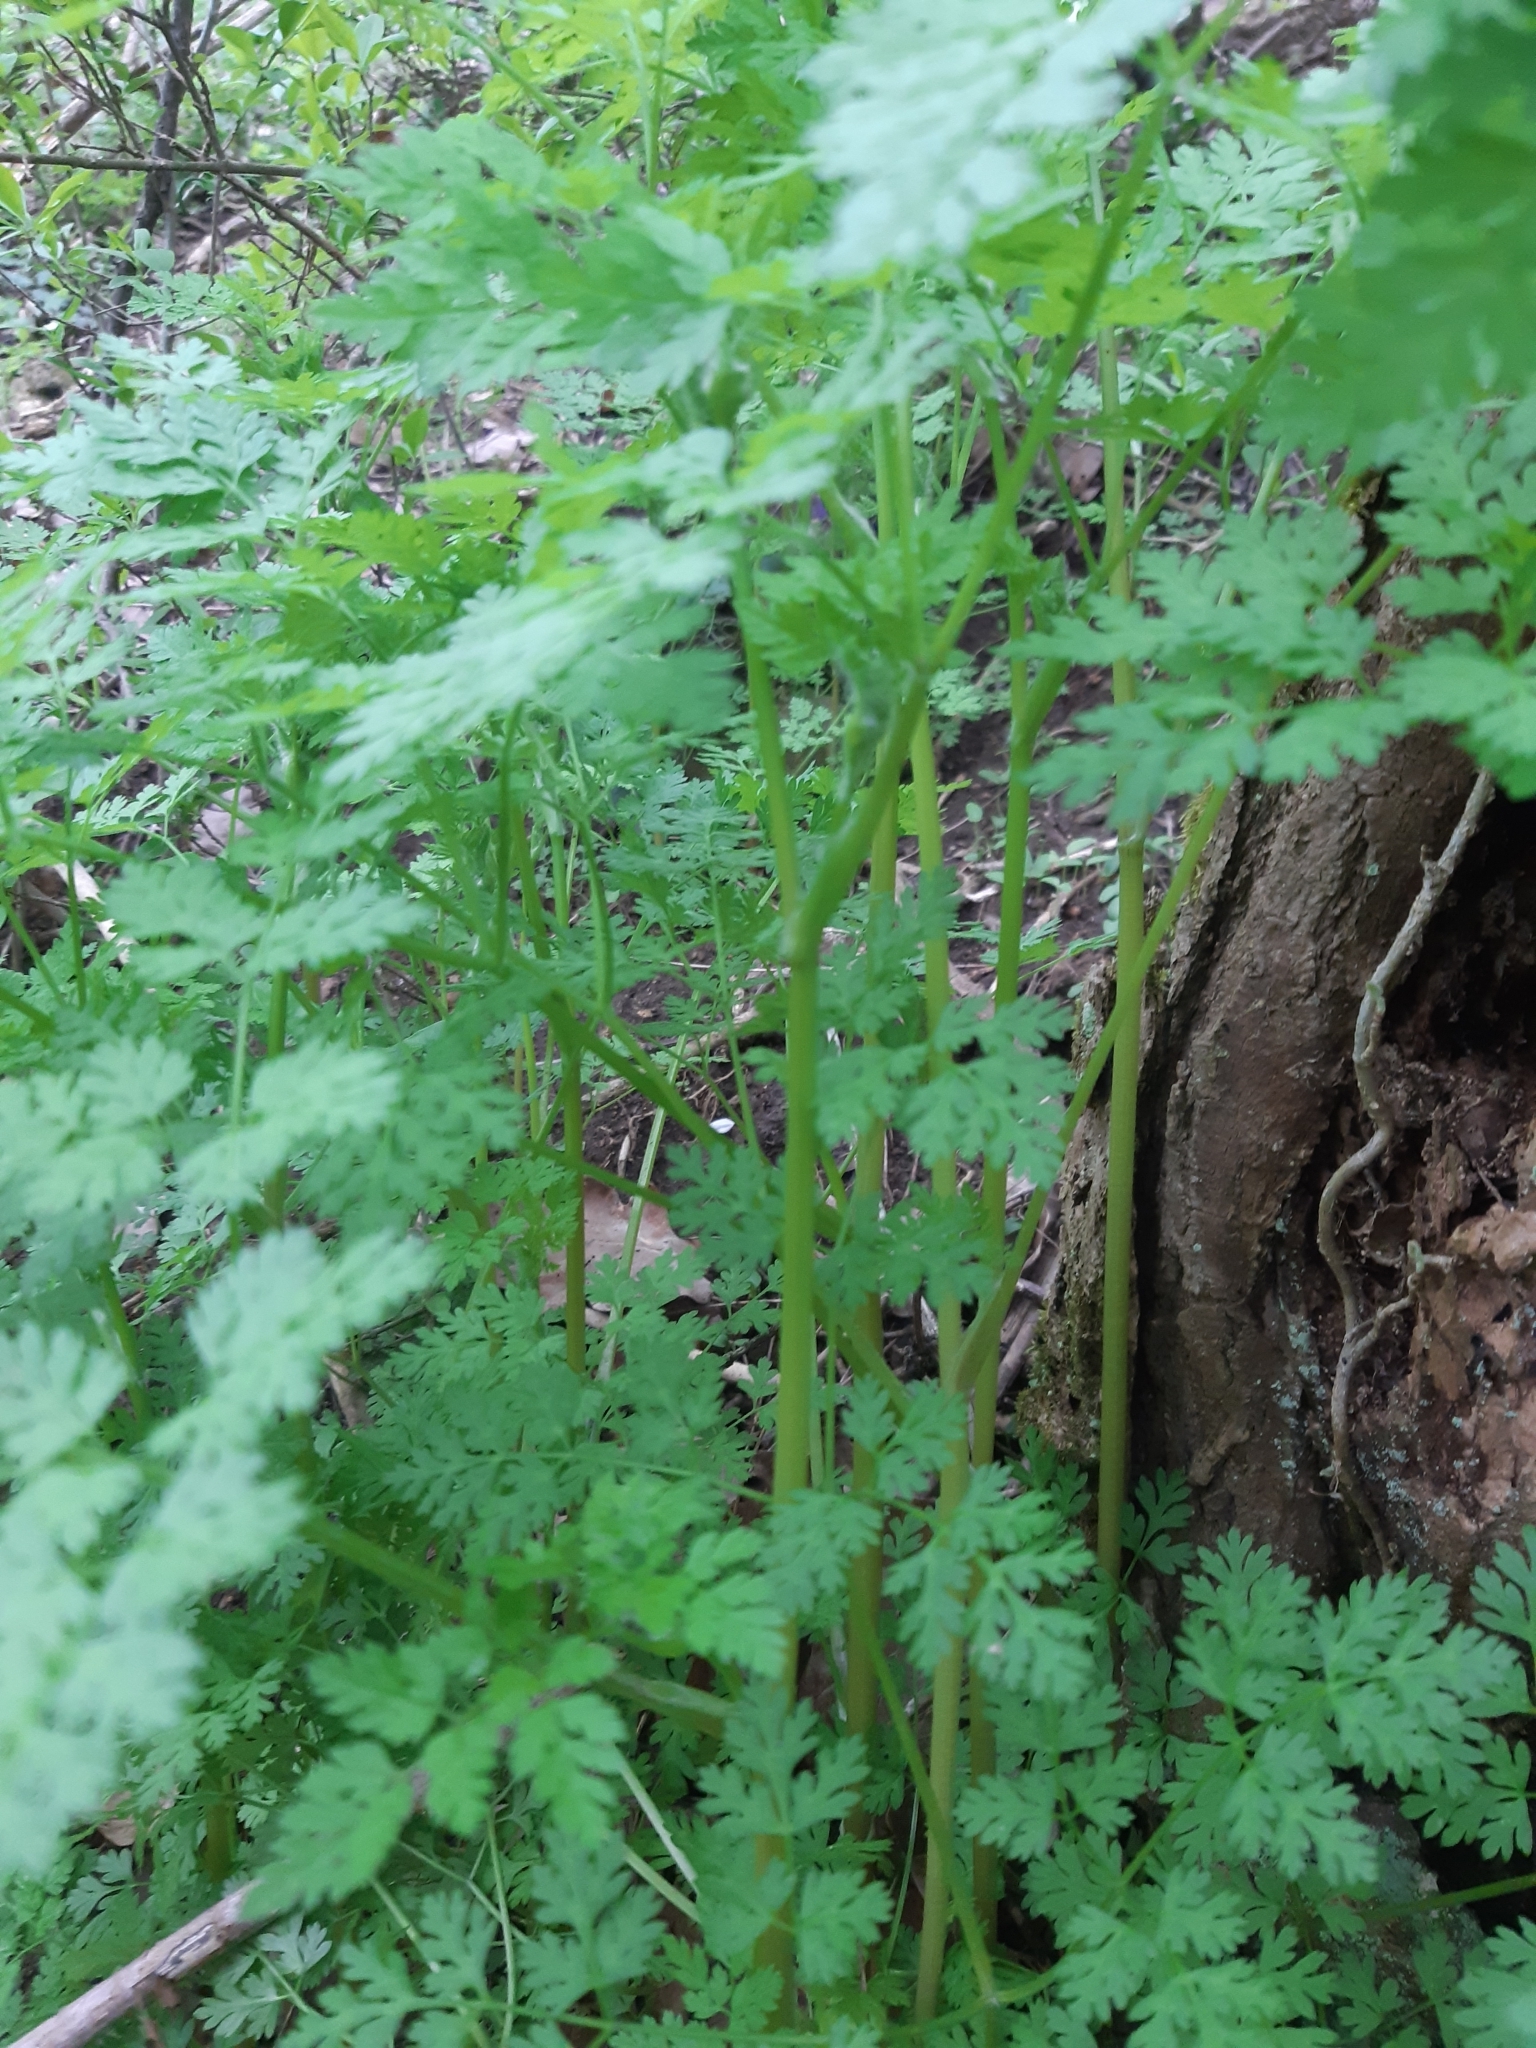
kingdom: Plantae
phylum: Tracheophyta
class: Magnoliopsida
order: Apiales
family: Apiaceae
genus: Anthriscus
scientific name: Anthriscus cerefolium
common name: Garden chervil
